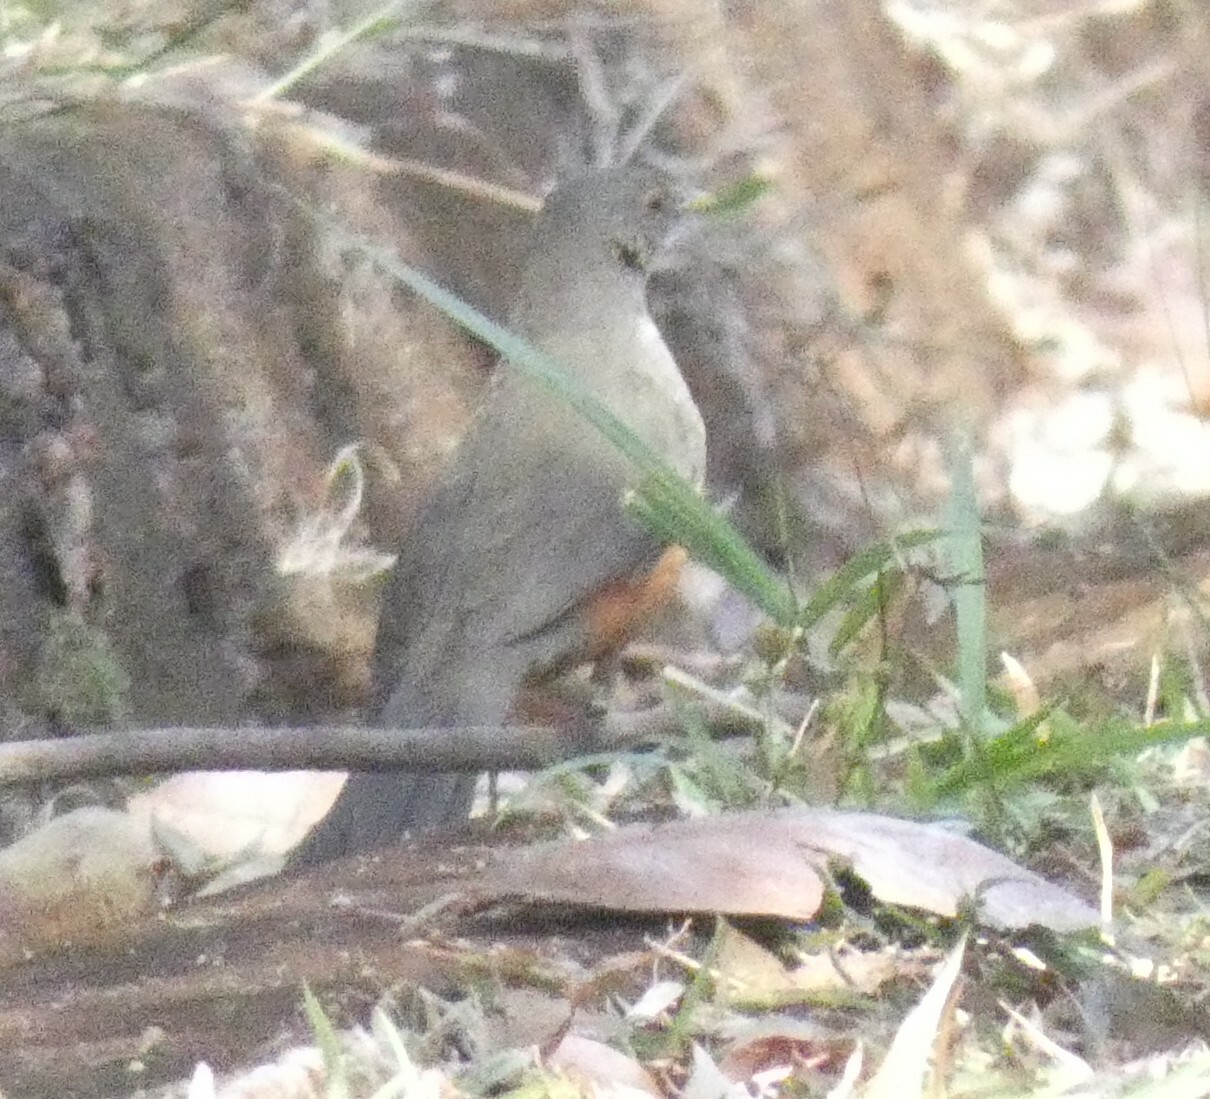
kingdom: Animalia
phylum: Chordata
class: Aves
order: Passeriformes
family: Turdidae
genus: Turdus
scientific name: Turdus rufiventris
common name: Rufous-bellied thrush
